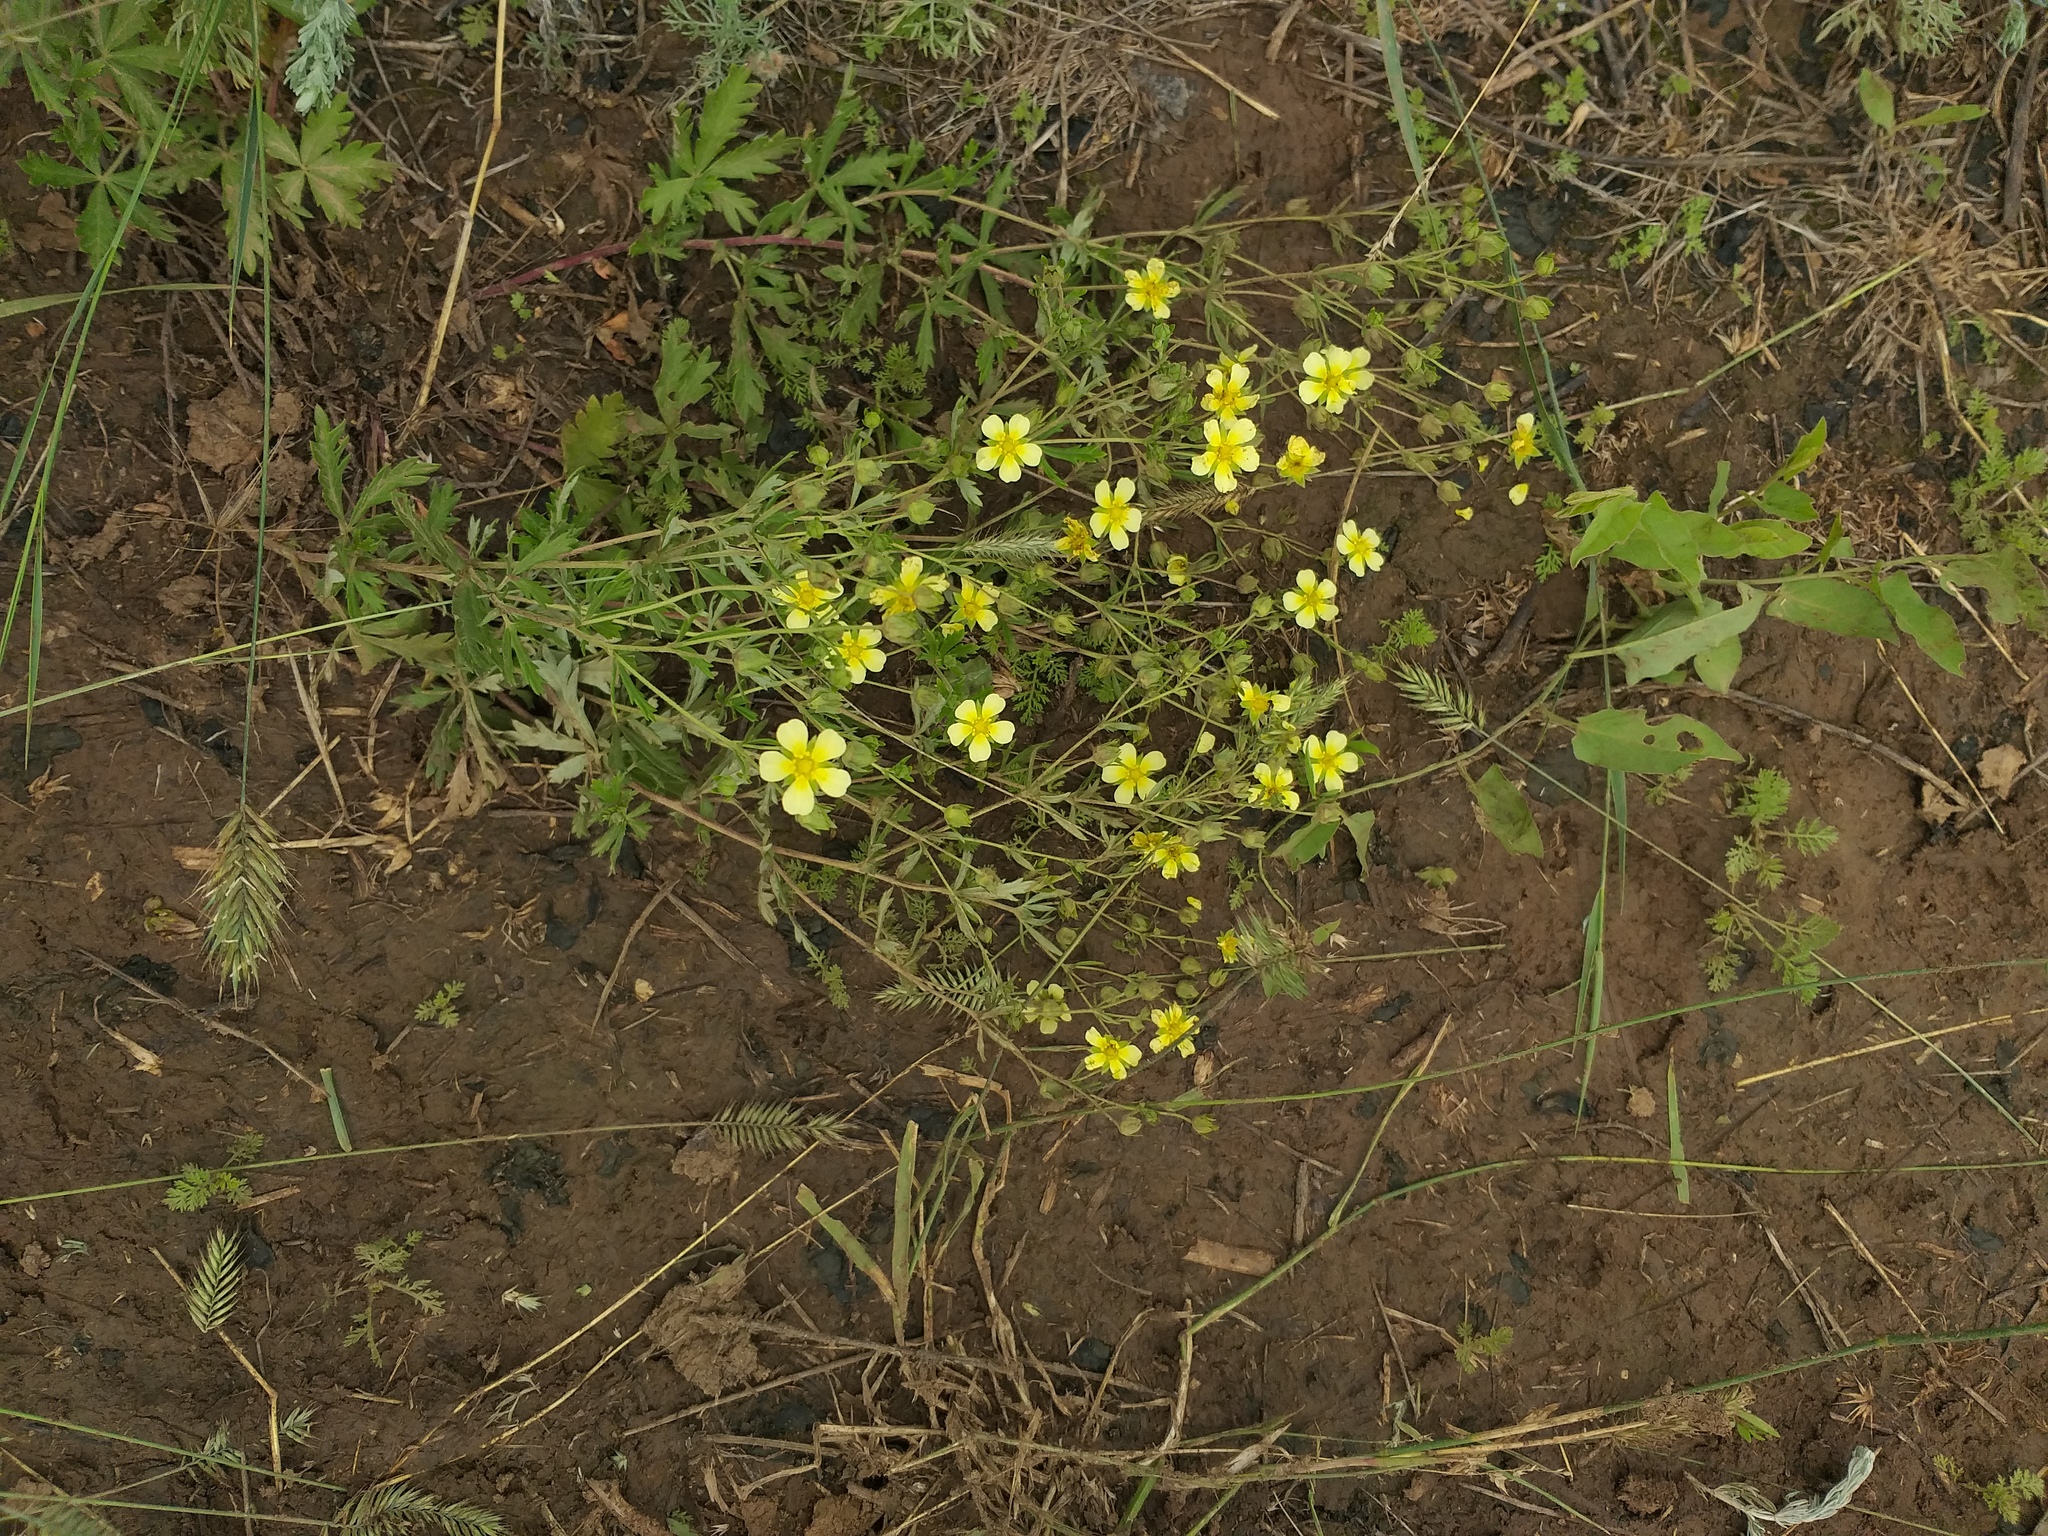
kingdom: Plantae
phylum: Tracheophyta
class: Magnoliopsida
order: Rosales
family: Rosaceae
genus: Potentilla
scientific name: Potentilla argentea
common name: Hoary cinquefoil
